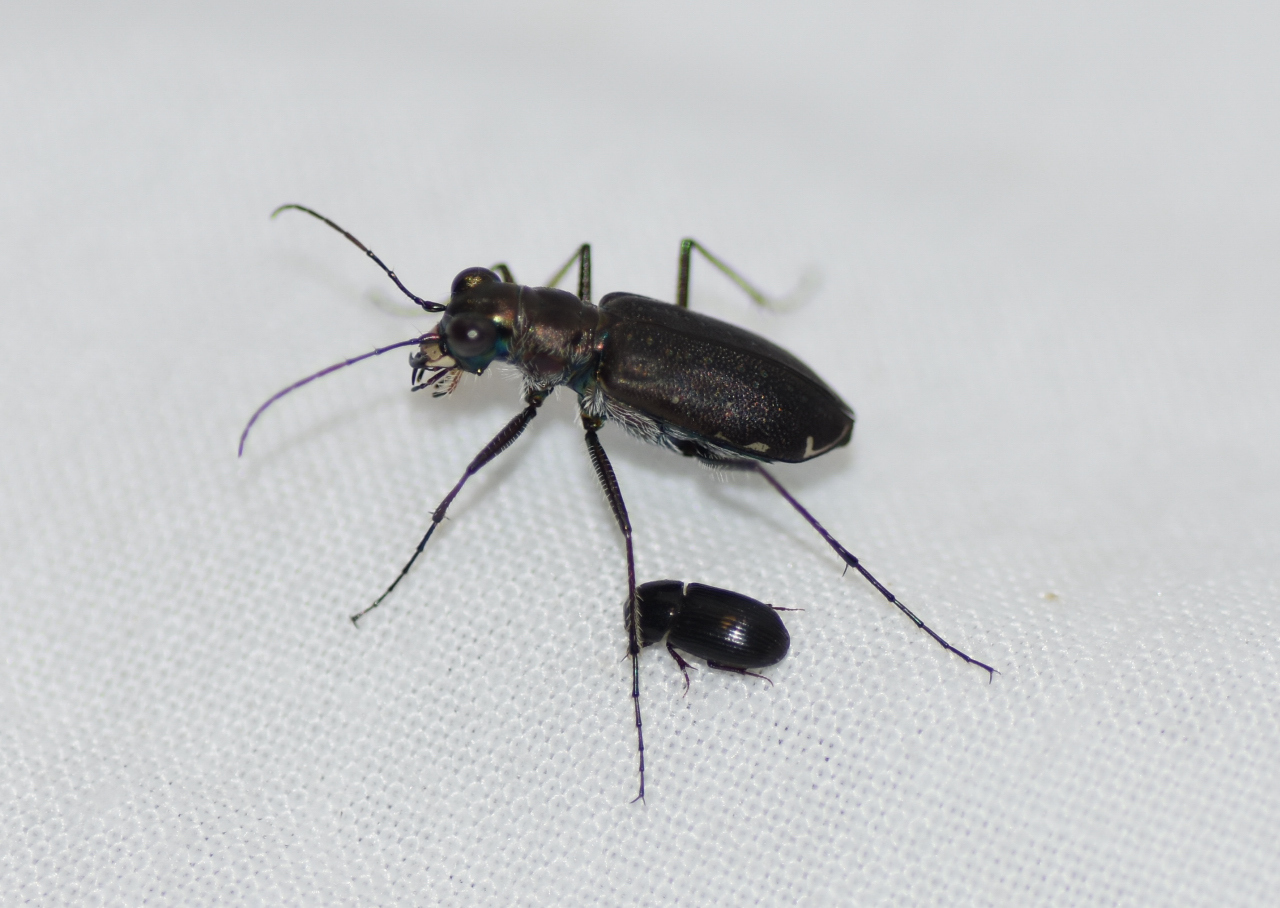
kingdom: Animalia
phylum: Arthropoda
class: Insecta
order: Coleoptera
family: Carabidae
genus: Cicindela
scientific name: Cicindela punctulata
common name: Punctured tiger beetle
